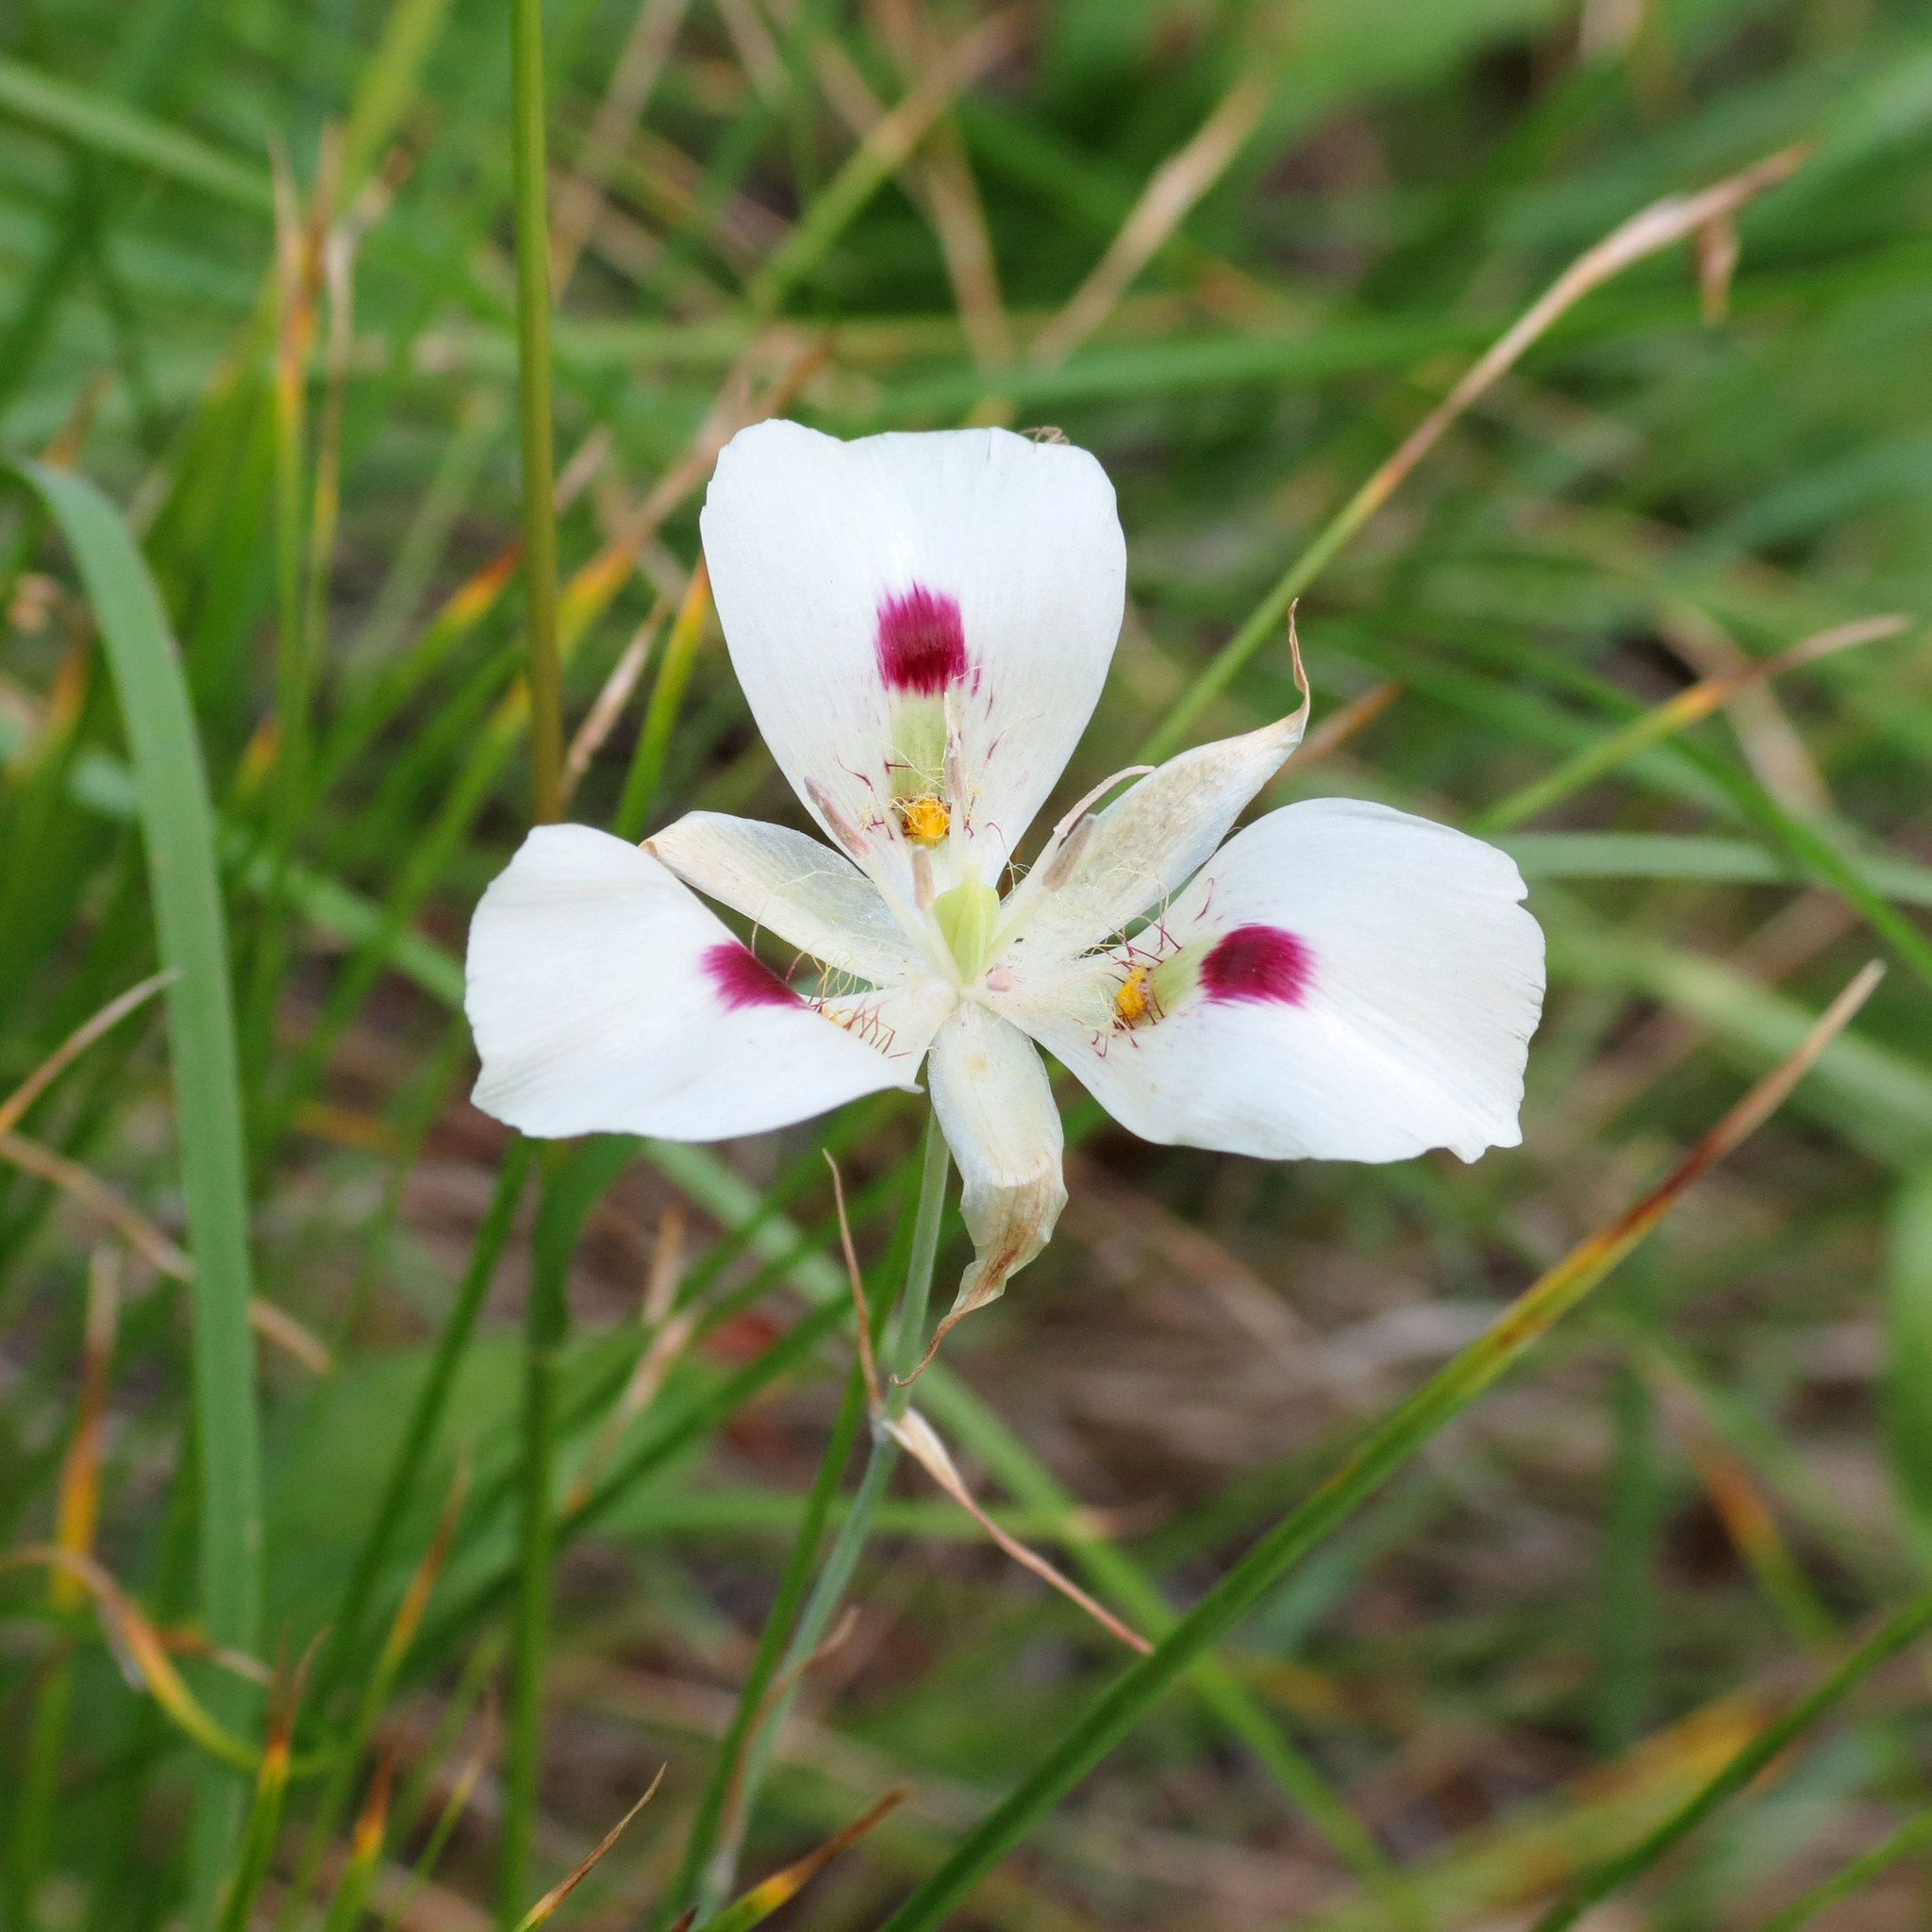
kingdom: Plantae
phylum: Tracheophyta
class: Liliopsida
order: Liliales
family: Liliaceae
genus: Calochortus
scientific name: Calochortus eurycarpus
